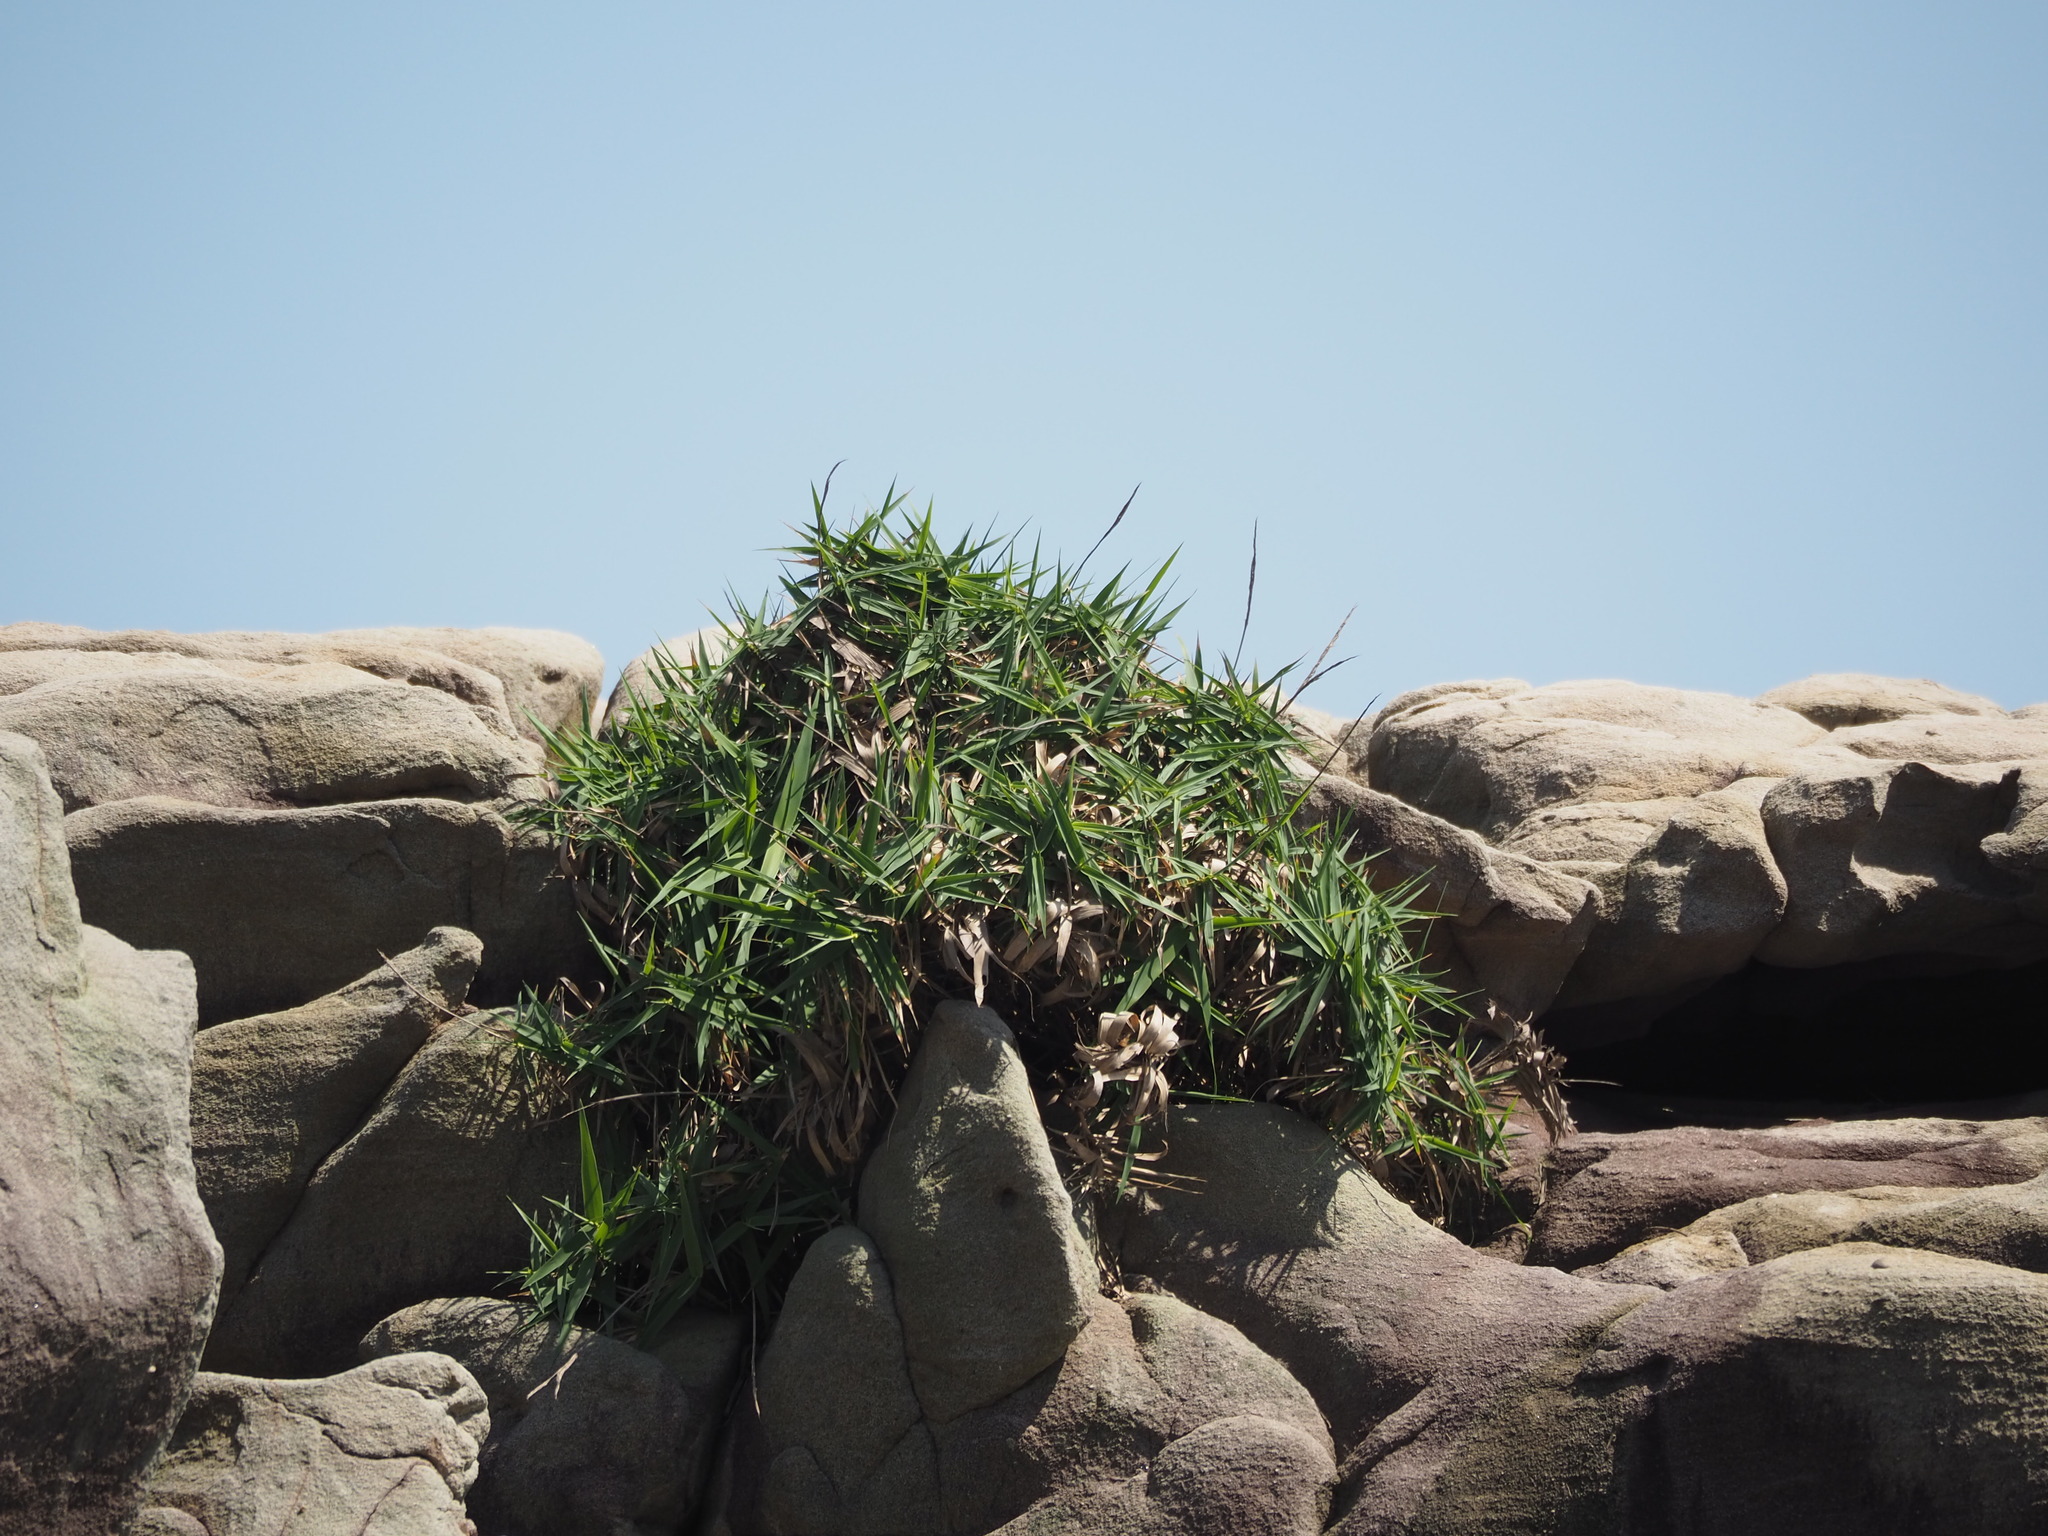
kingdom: Plantae
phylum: Tracheophyta
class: Liliopsida
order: Poales
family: Poaceae
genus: Arundo
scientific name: Arundo formosana
